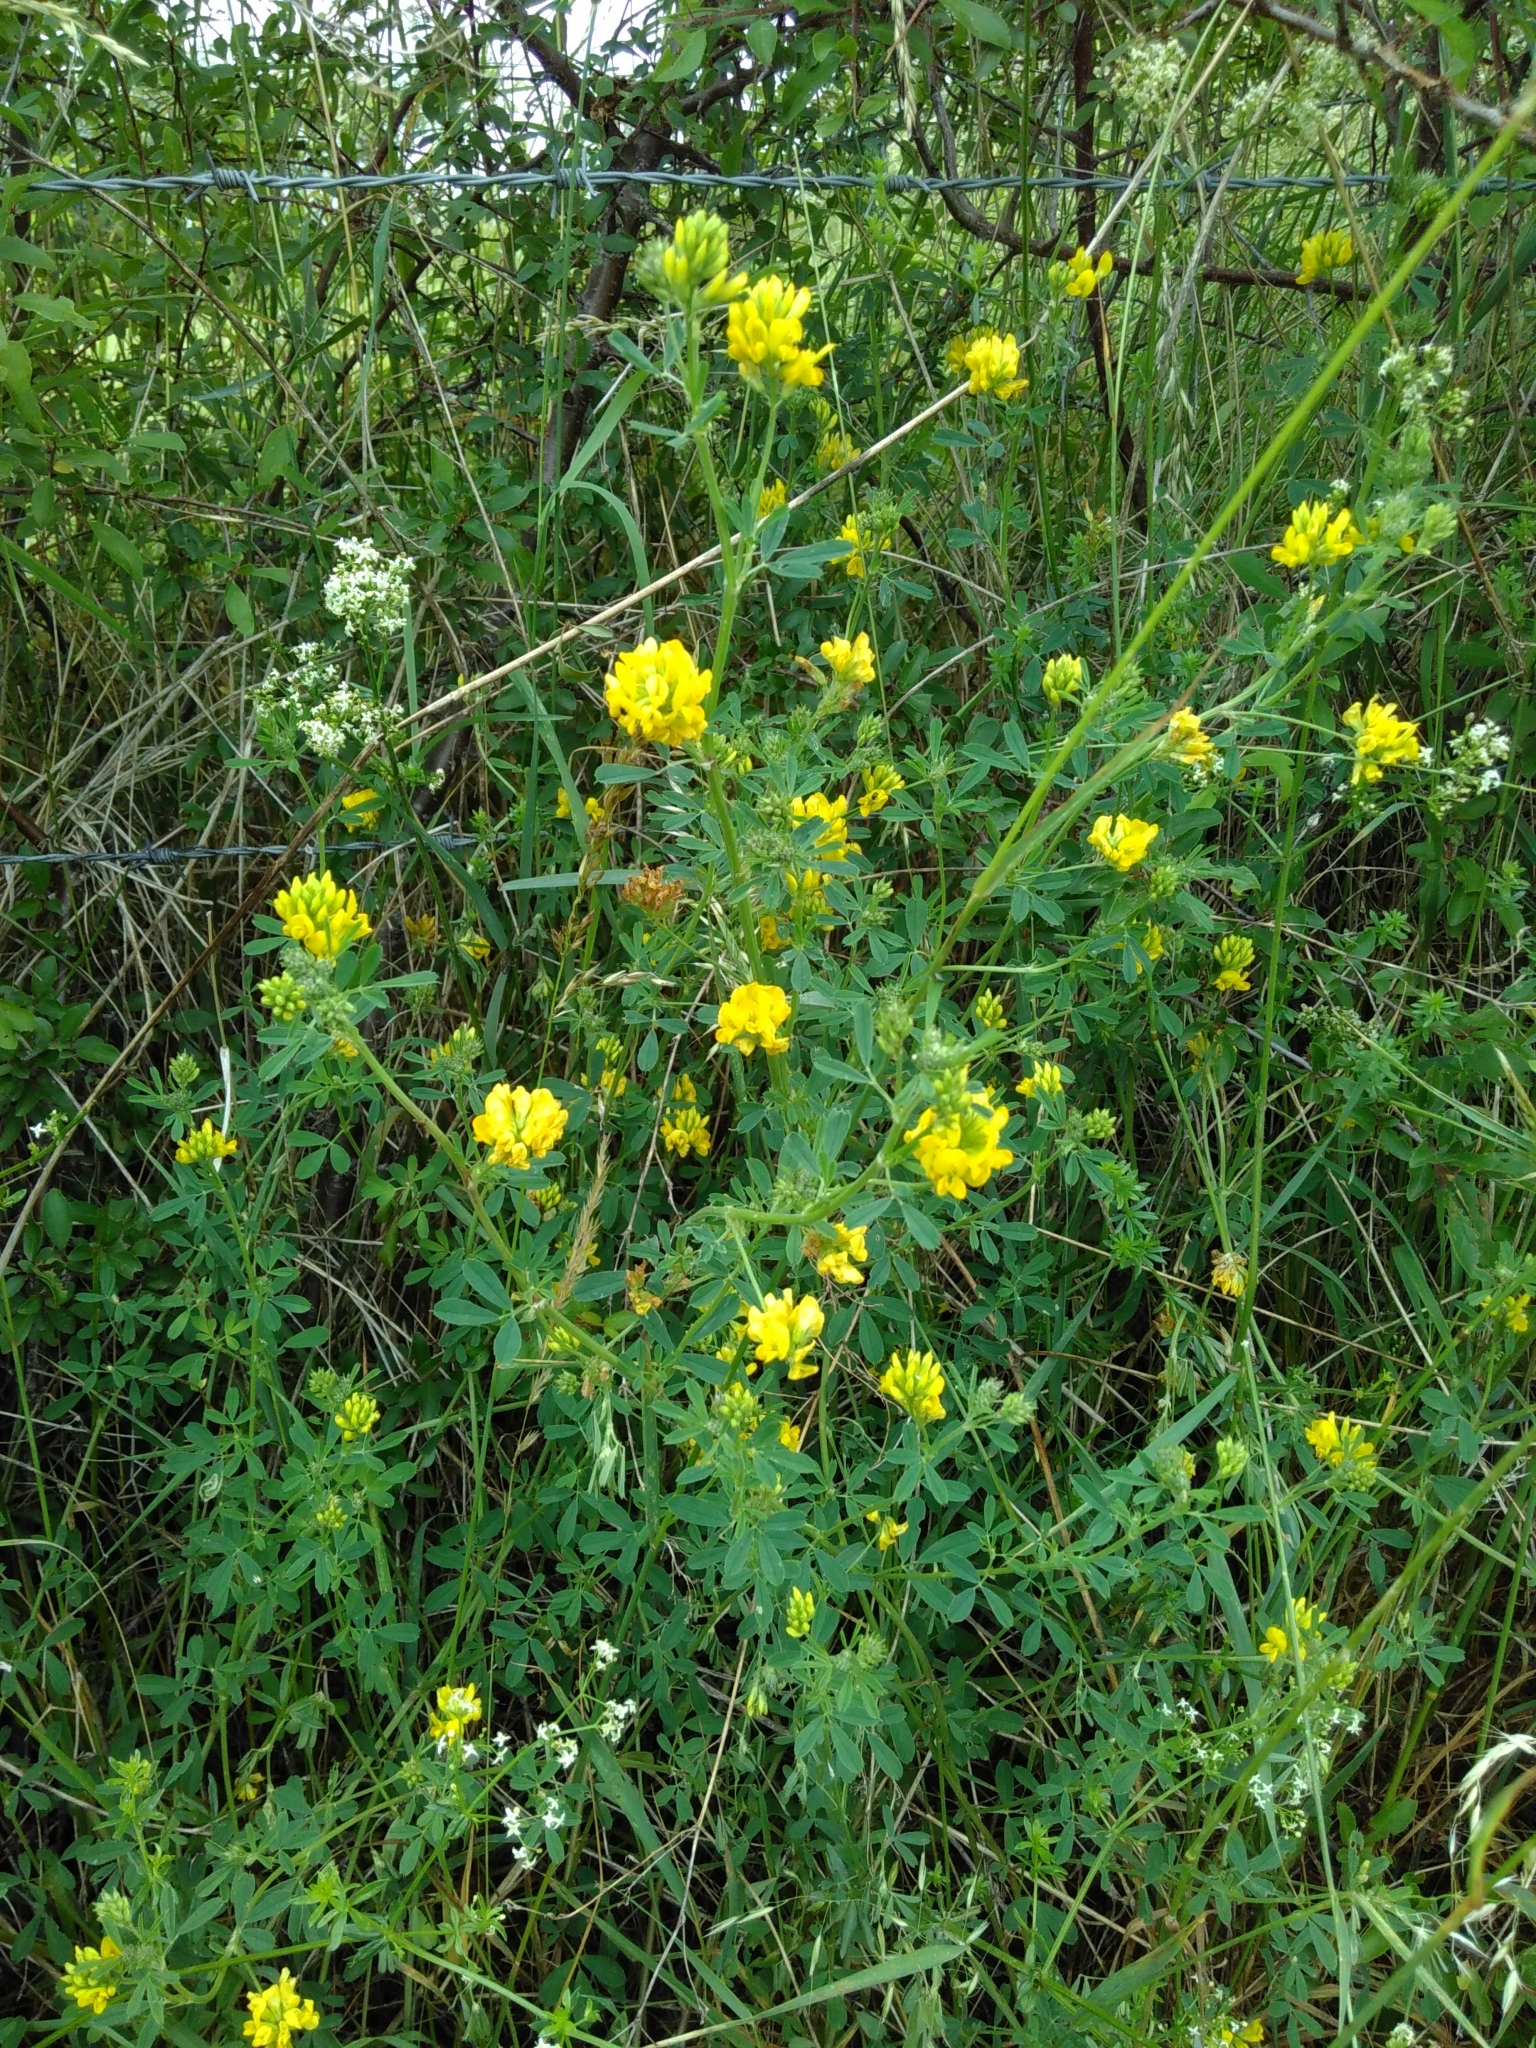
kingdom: Plantae
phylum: Tracheophyta
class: Magnoliopsida
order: Fabales
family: Fabaceae
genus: Medicago
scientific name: Medicago falcata
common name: Sickle medick
